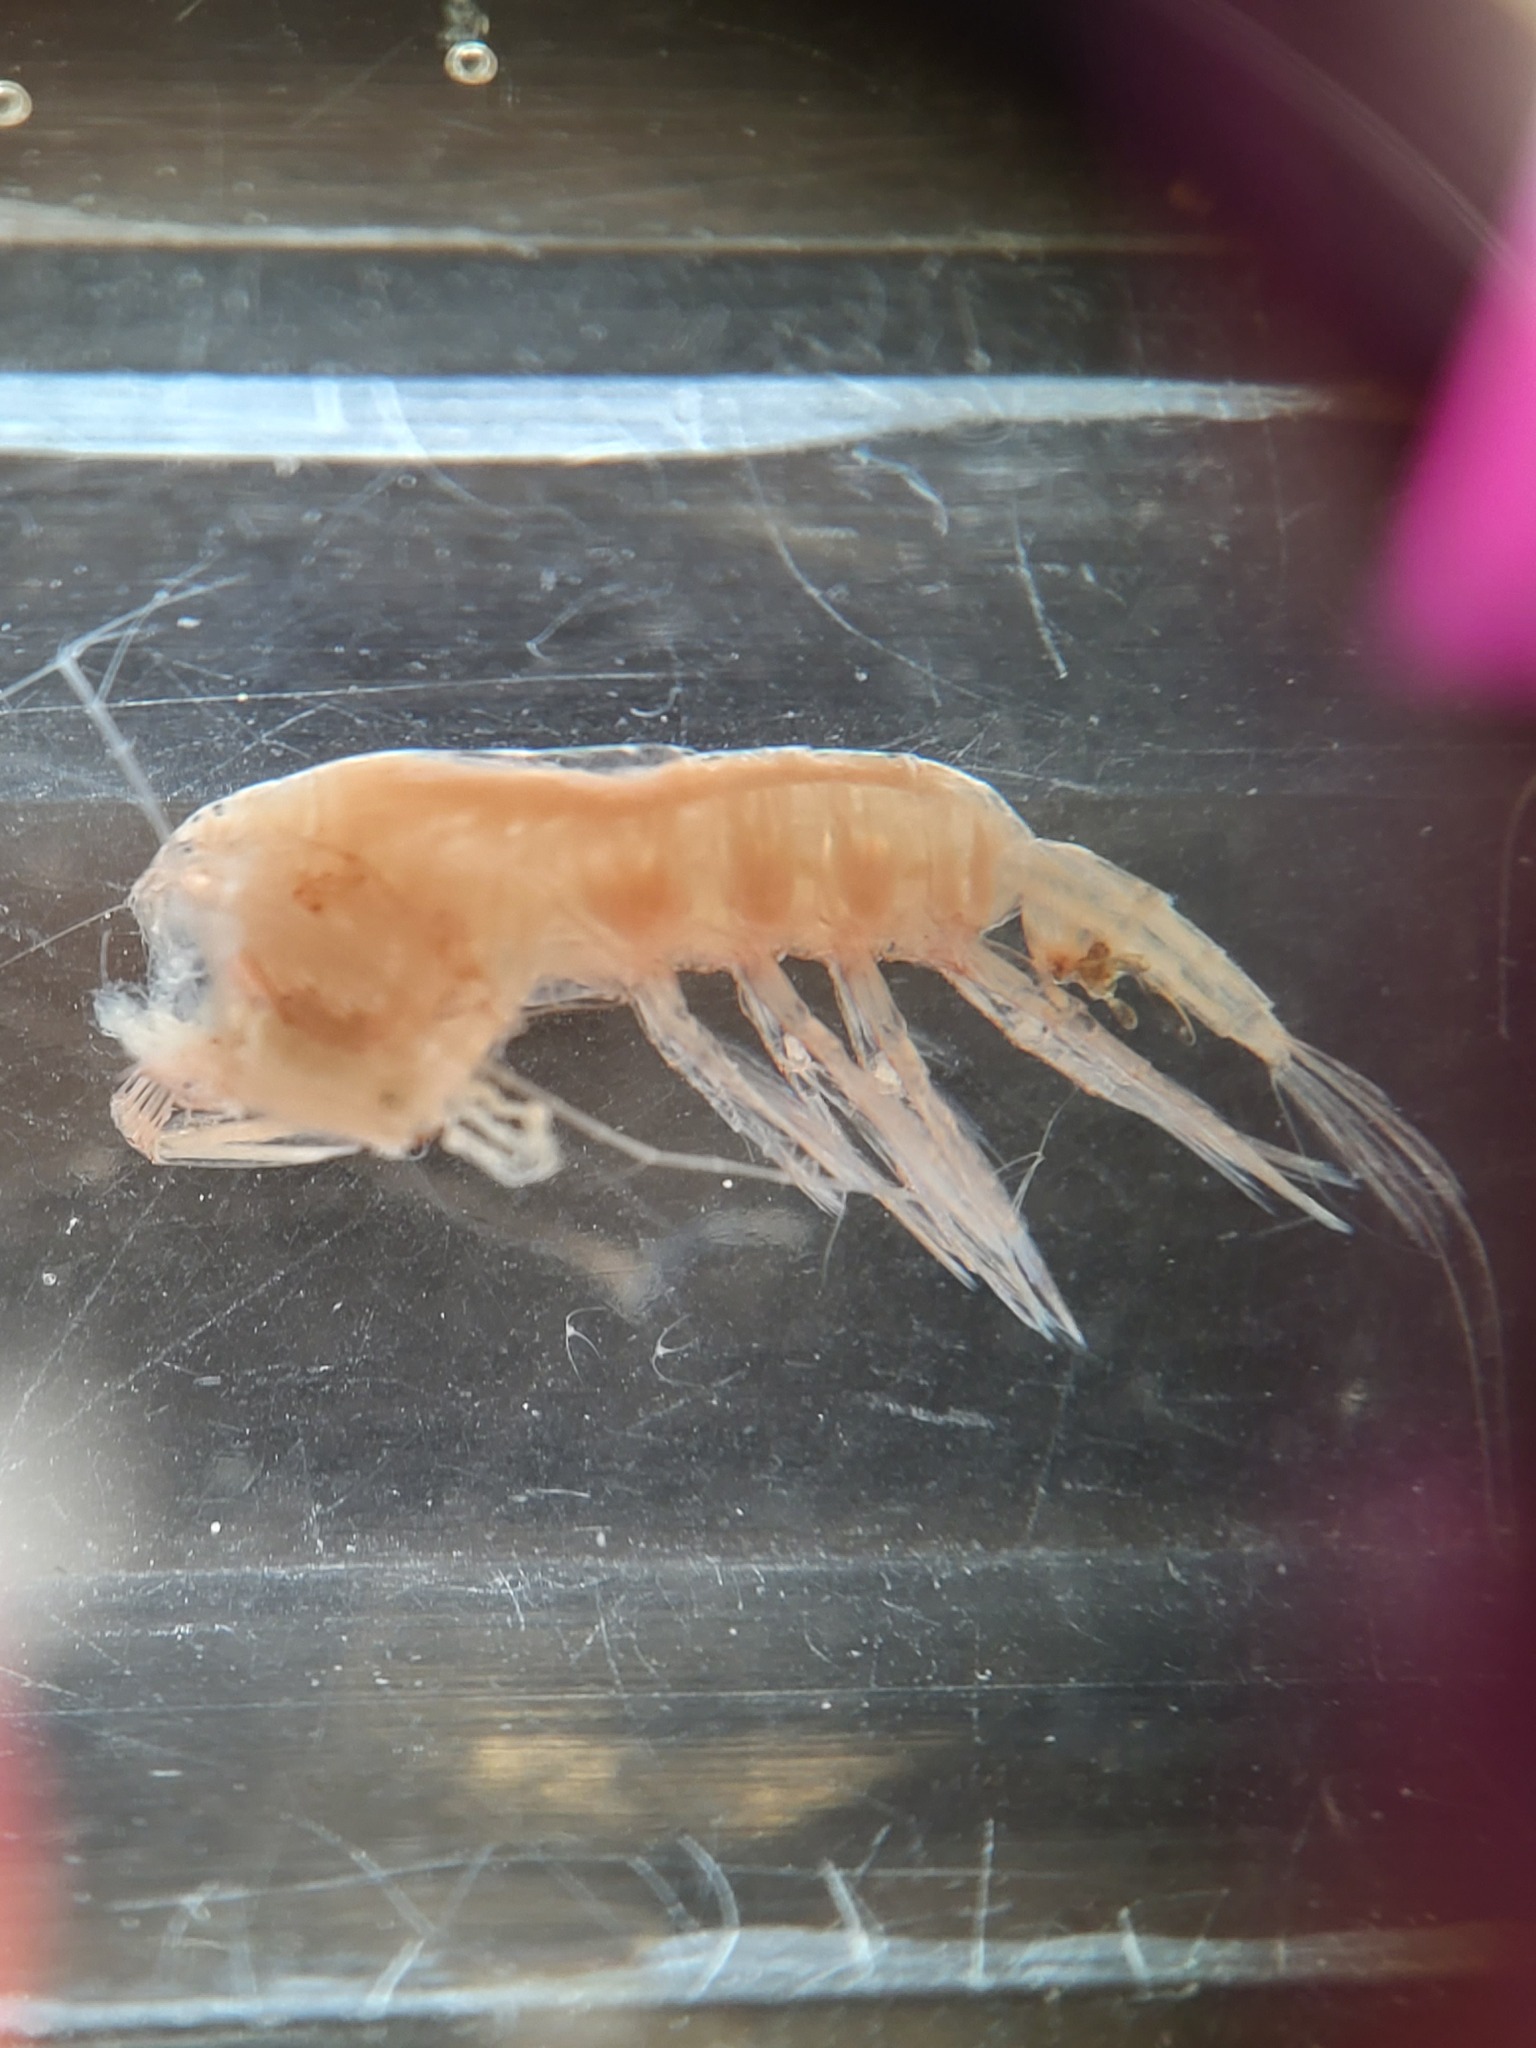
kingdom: Animalia
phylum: Arthropoda
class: Copepoda
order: Calanoida
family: Euchaetidae
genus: Paraeuchaeta
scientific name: Paraeuchaeta glacialis
